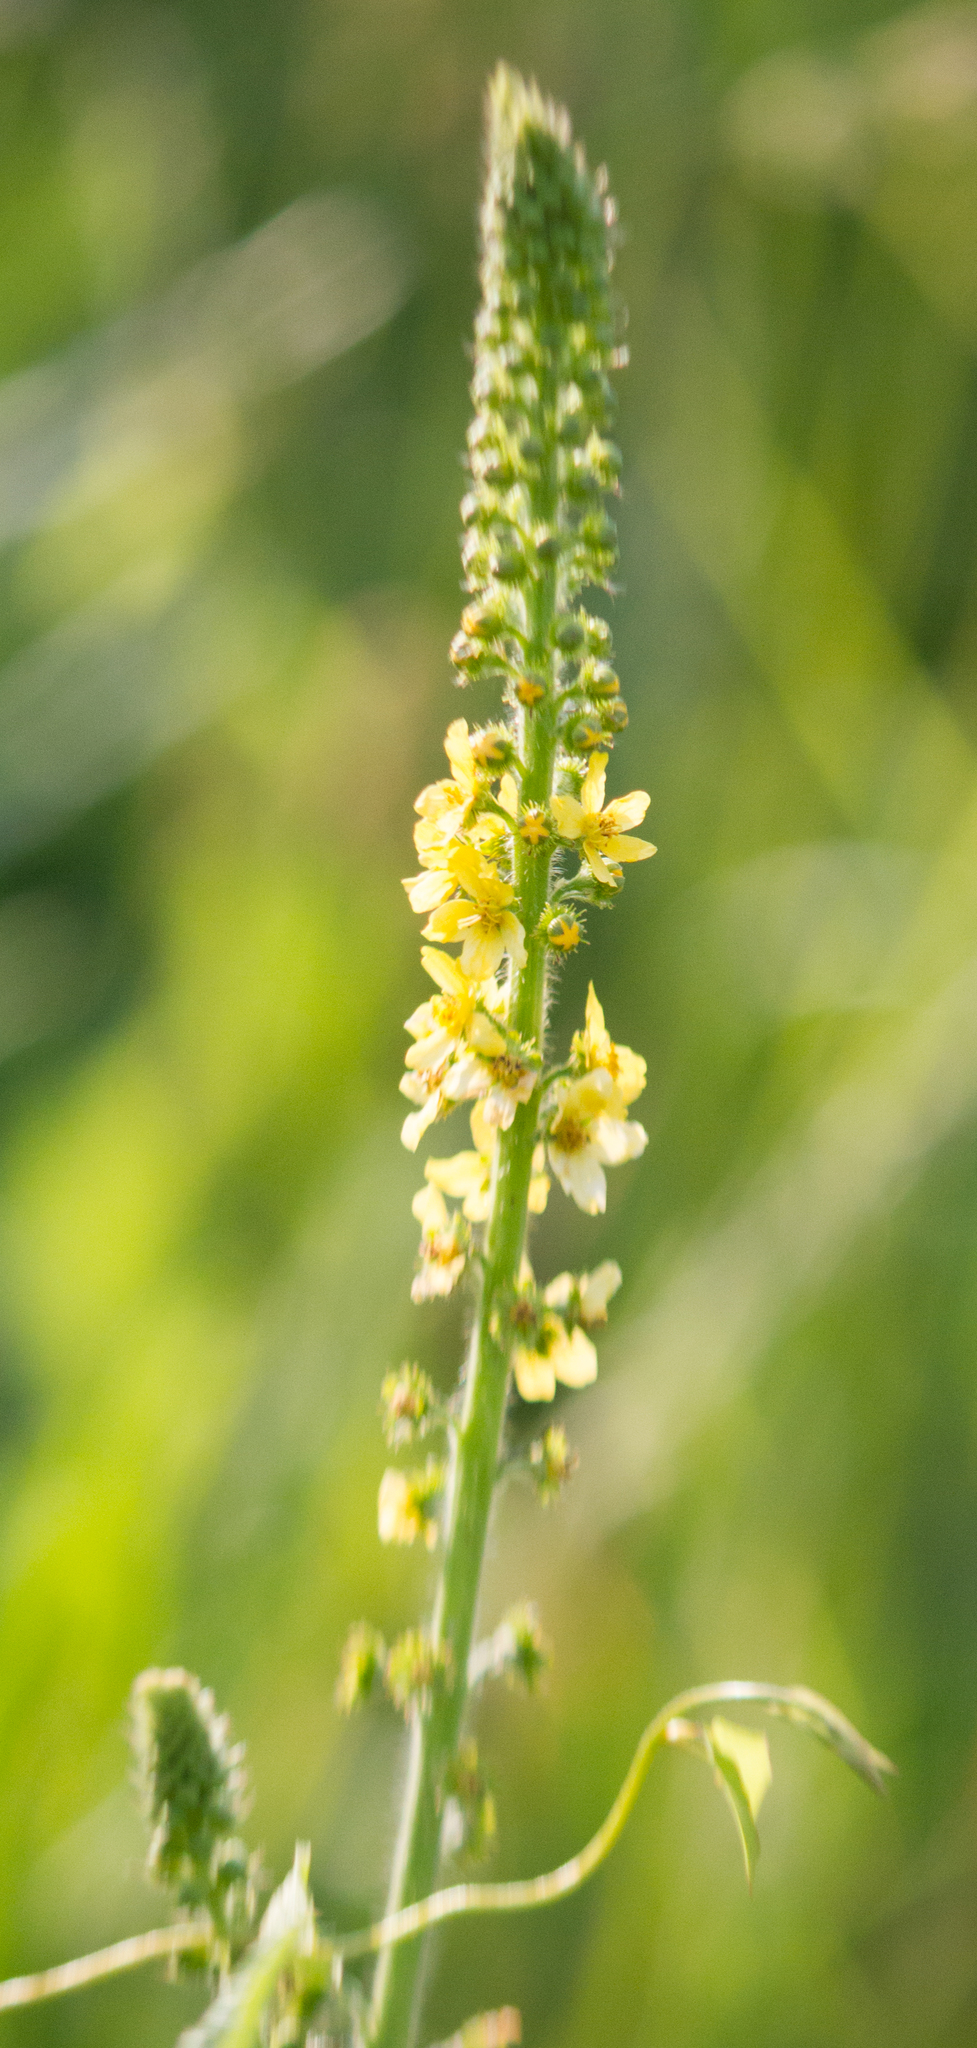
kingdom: Plantae
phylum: Tracheophyta
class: Magnoliopsida
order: Rosales
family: Rosaceae
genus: Agrimonia
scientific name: Agrimonia eupatoria
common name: Agrimony
